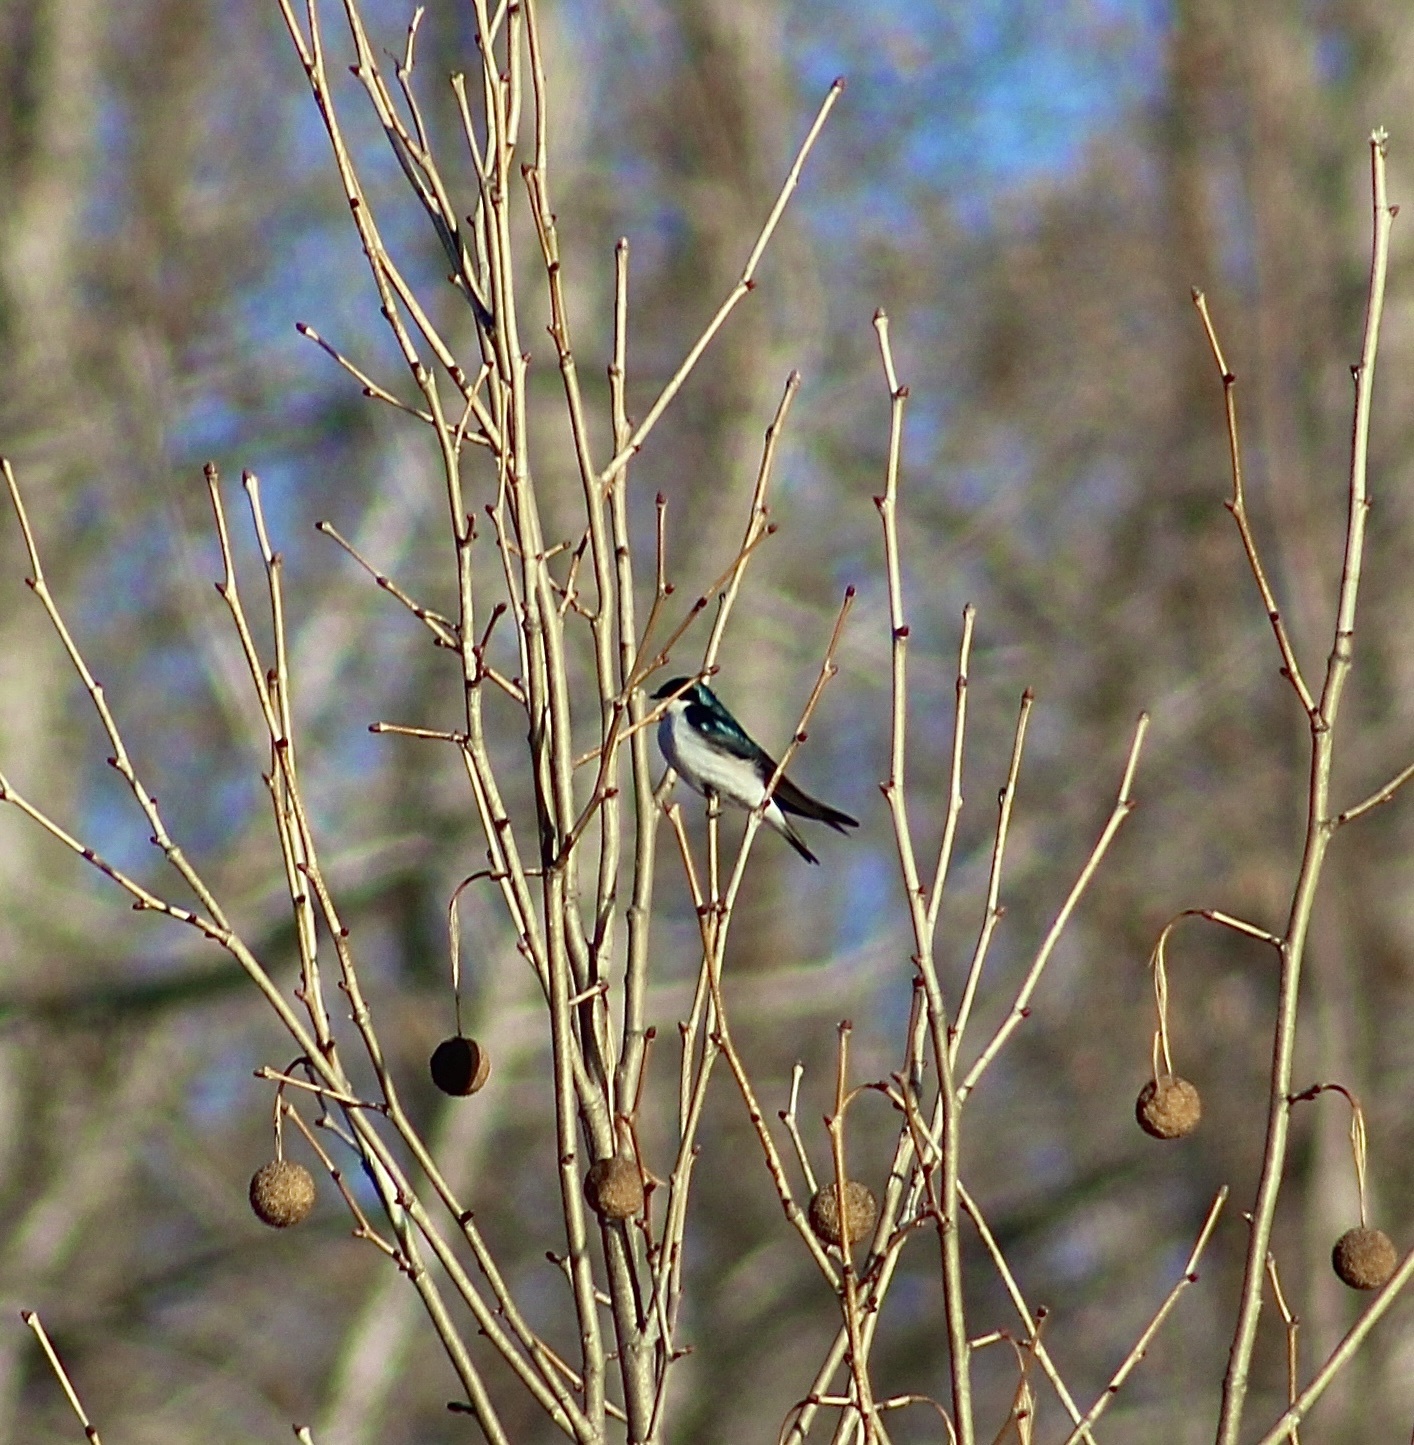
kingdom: Animalia
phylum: Chordata
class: Aves
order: Passeriformes
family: Hirundinidae
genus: Tachycineta
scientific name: Tachycineta bicolor
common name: Tree swallow
